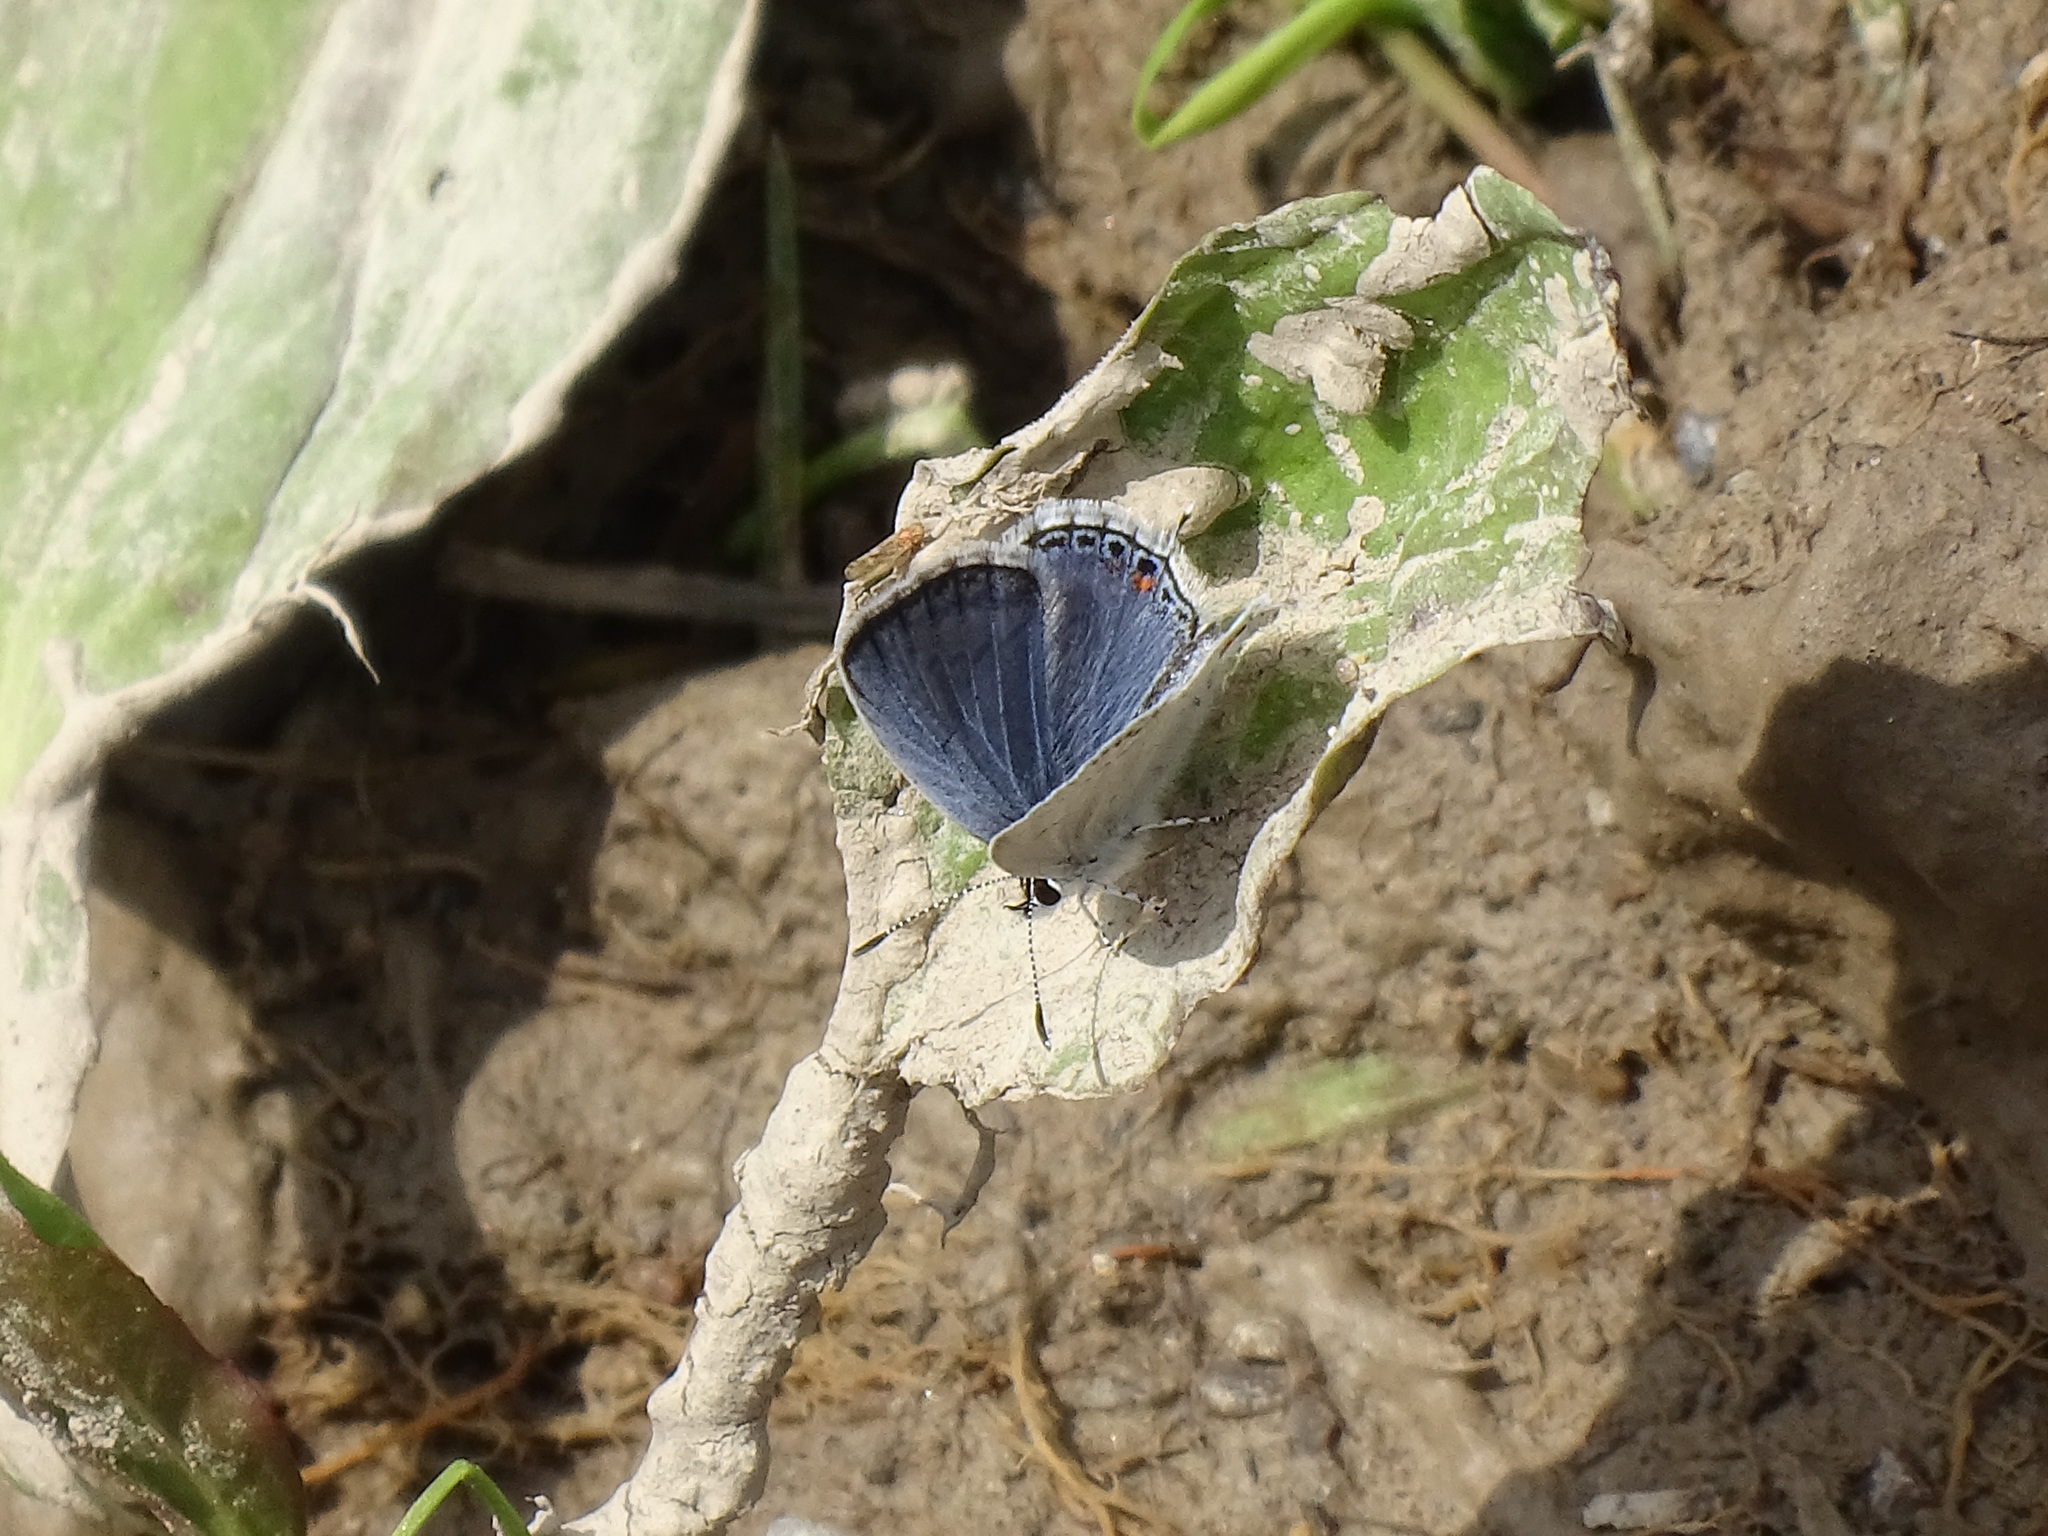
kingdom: Animalia
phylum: Arthropoda
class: Insecta
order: Lepidoptera
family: Lycaenidae
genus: Elkalyce
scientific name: Elkalyce comyntas
